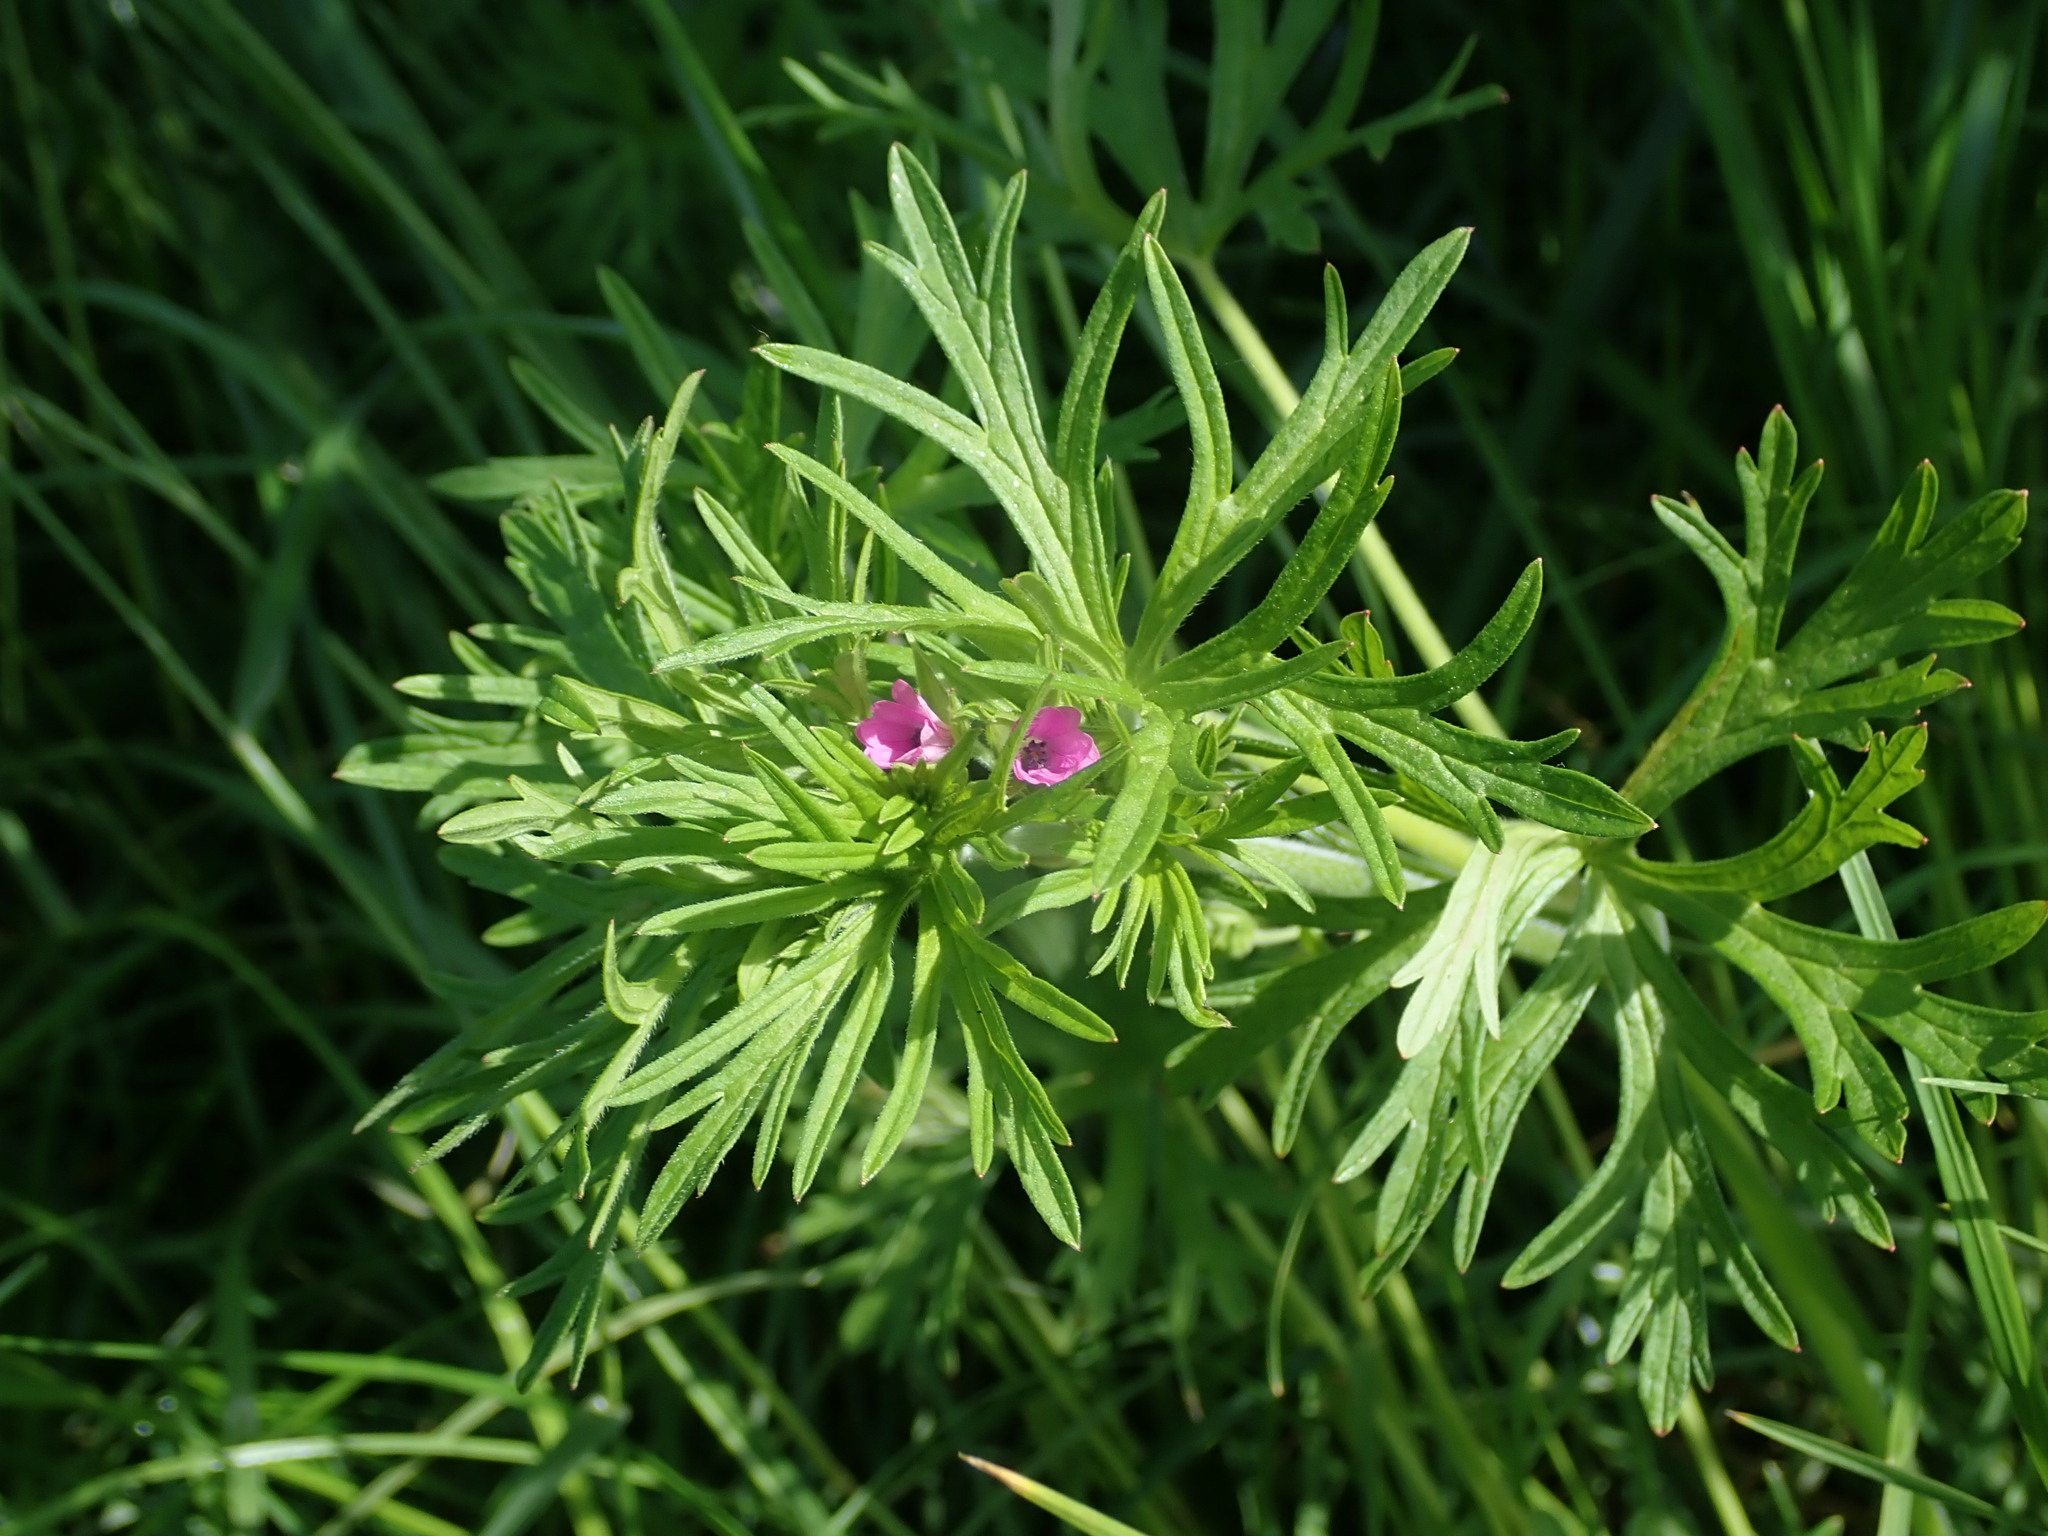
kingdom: Plantae
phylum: Tracheophyta
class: Magnoliopsida
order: Geraniales
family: Geraniaceae
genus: Geranium
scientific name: Geranium dissectum
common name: Cut-leaved crane's-bill
